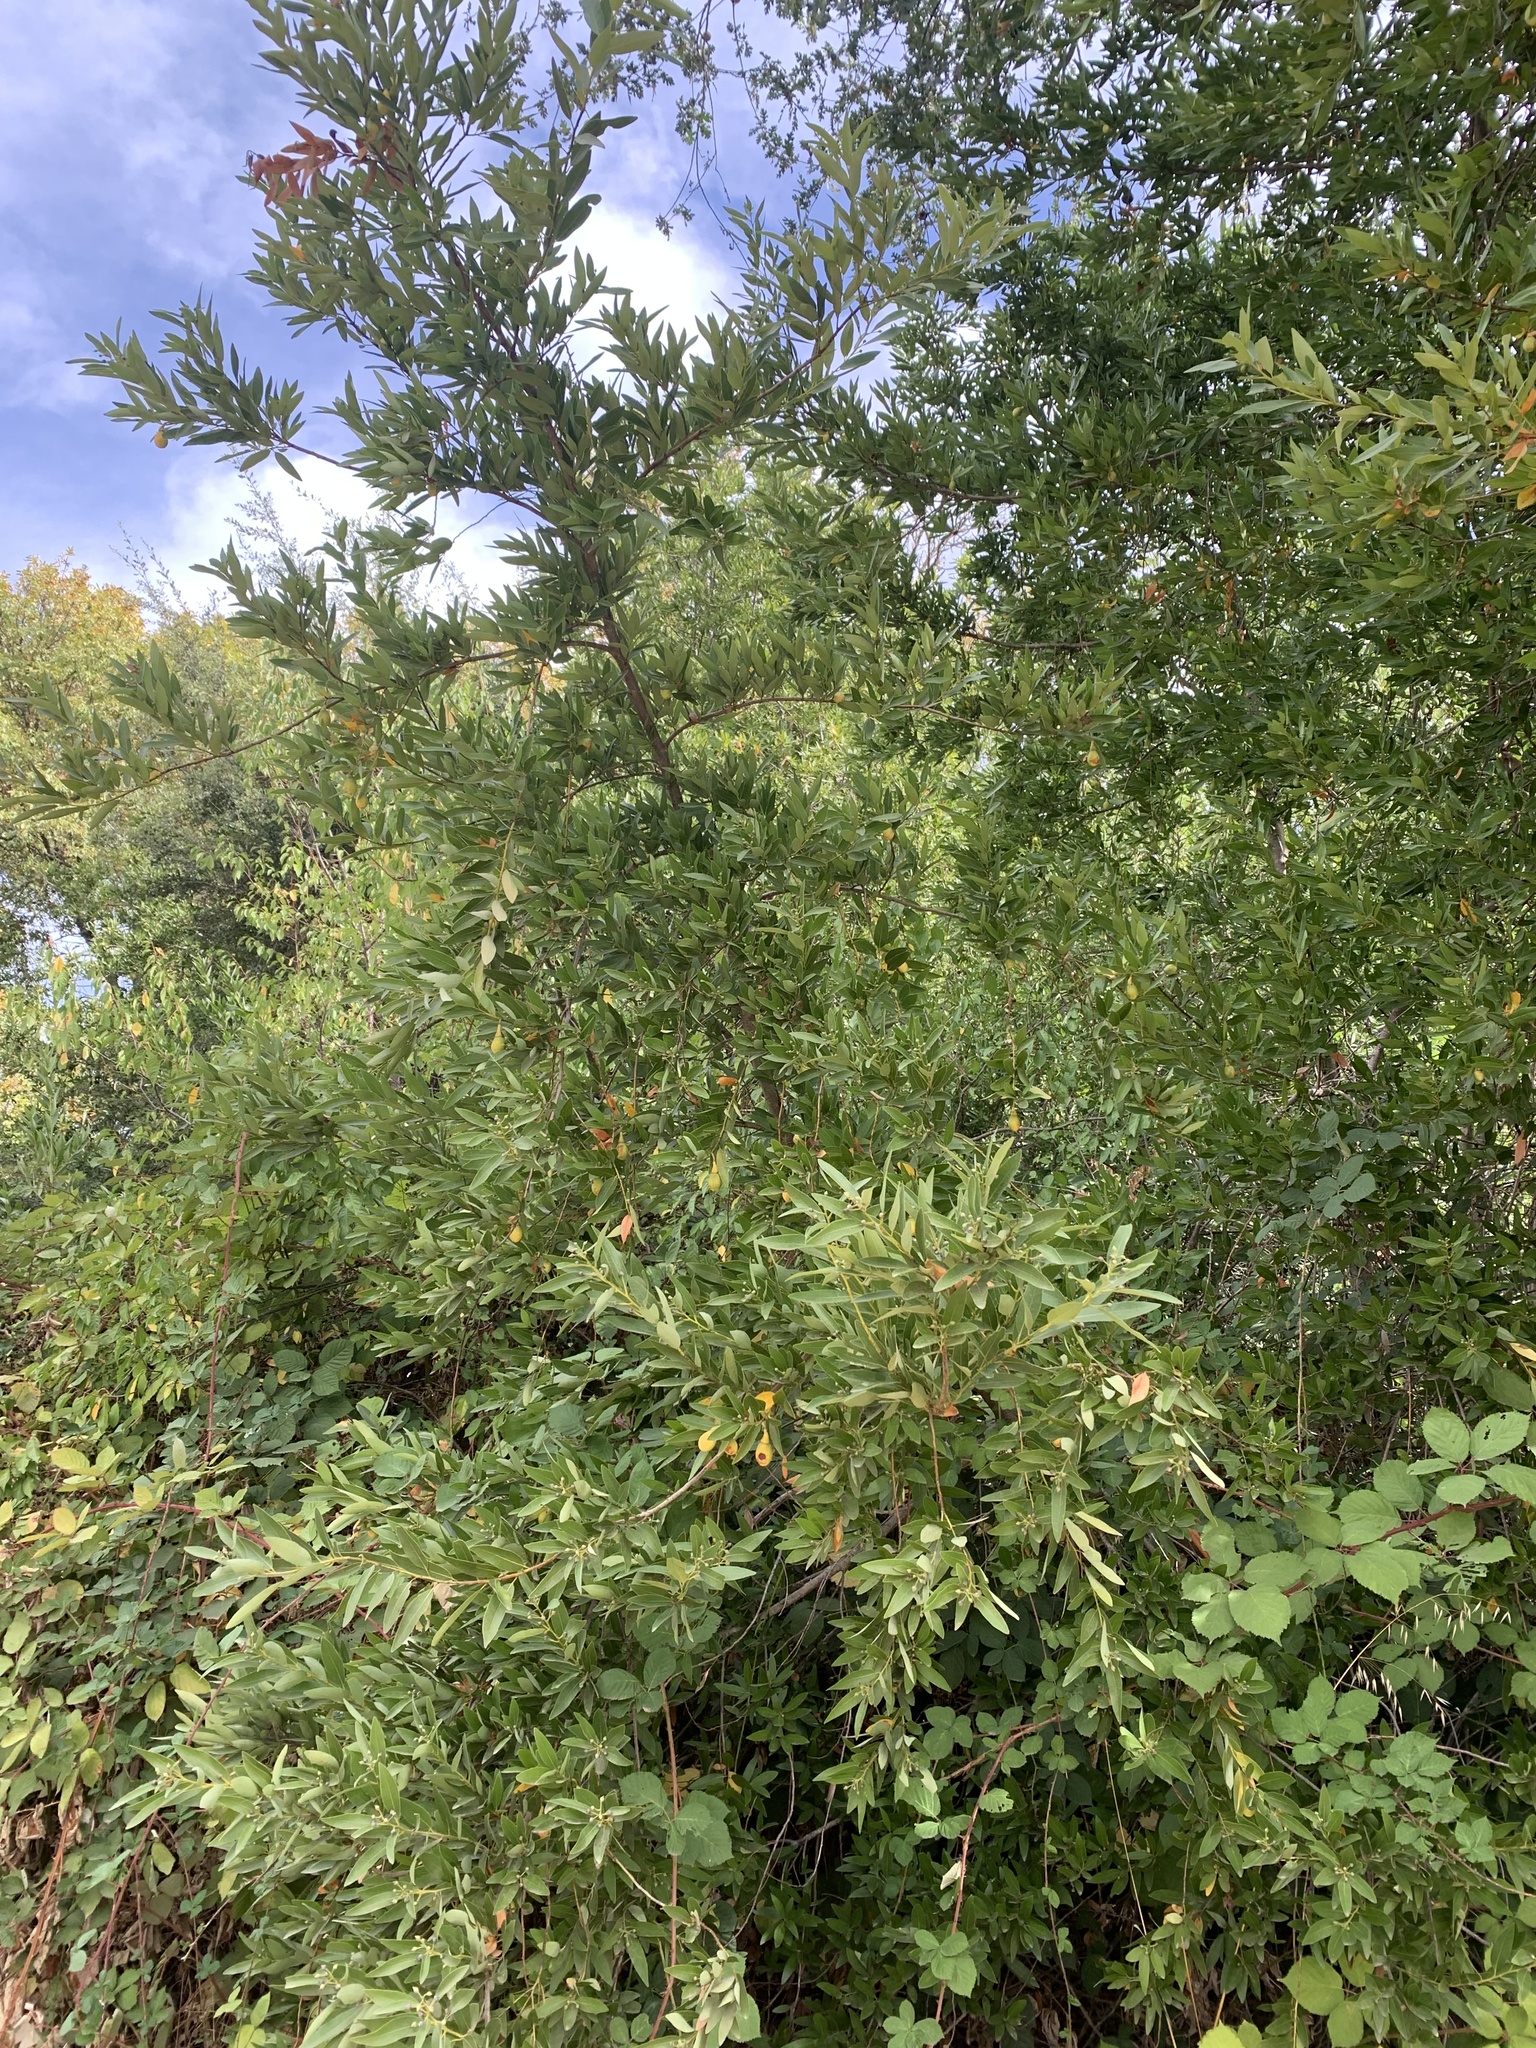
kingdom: Plantae
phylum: Tracheophyta
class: Magnoliopsida
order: Laurales
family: Lauraceae
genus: Umbellularia
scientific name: Umbellularia californica
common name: California bay
